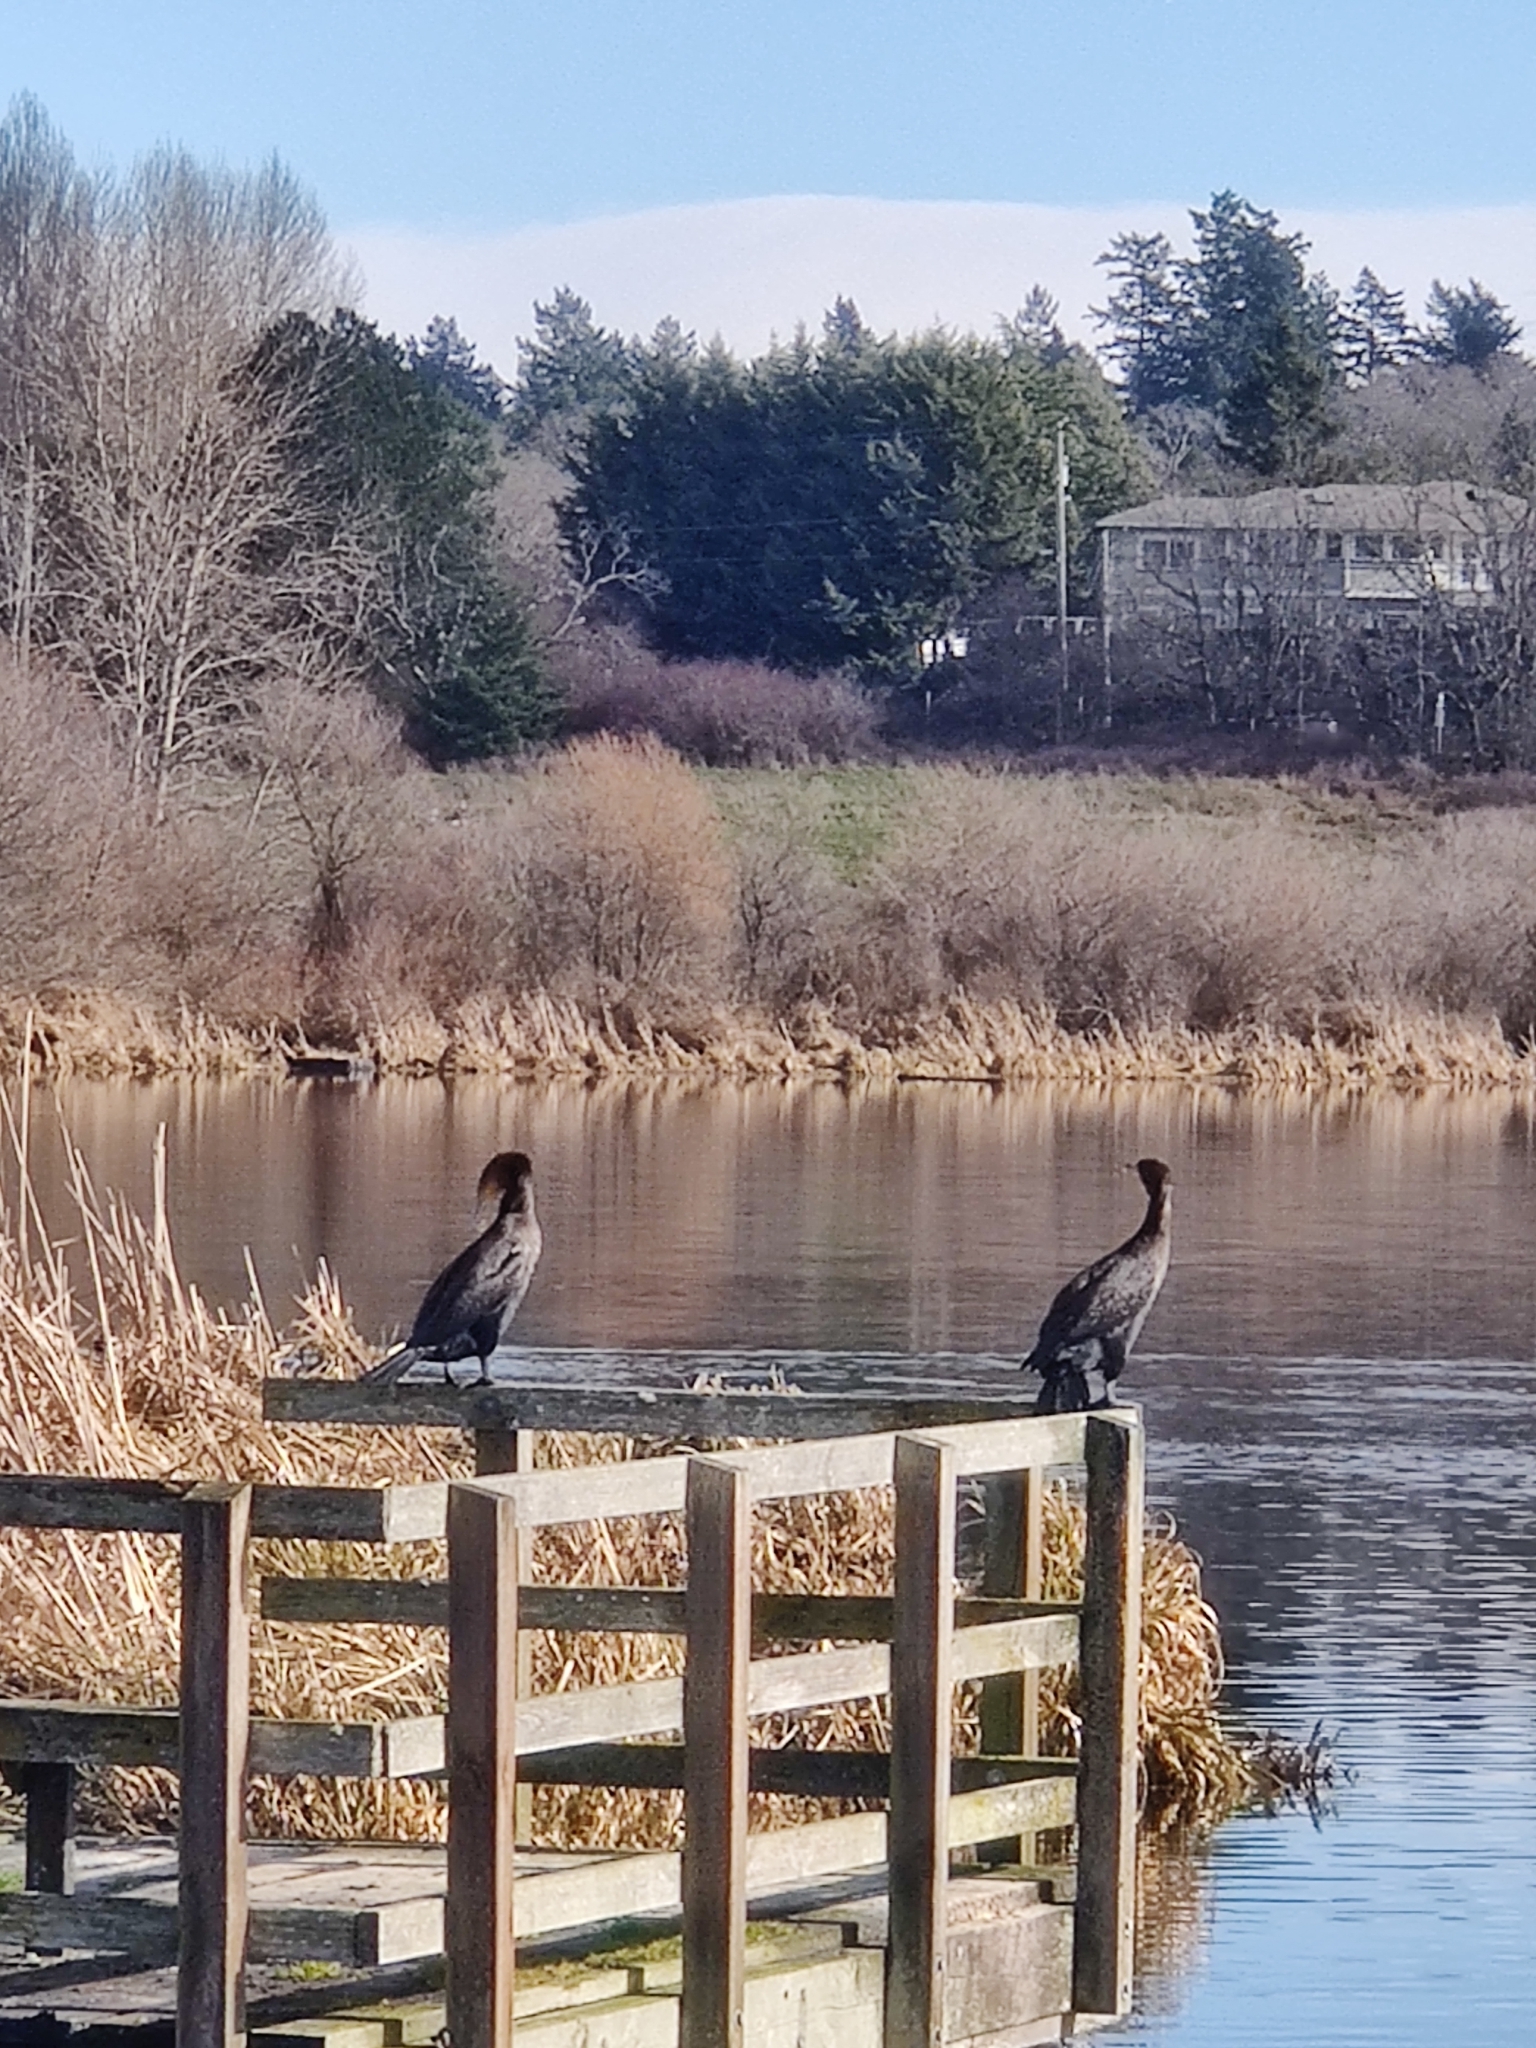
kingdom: Animalia
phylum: Chordata
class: Aves
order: Suliformes
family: Phalacrocoracidae
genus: Phalacrocorax
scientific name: Phalacrocorax auritus
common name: Double-crested cormorant
